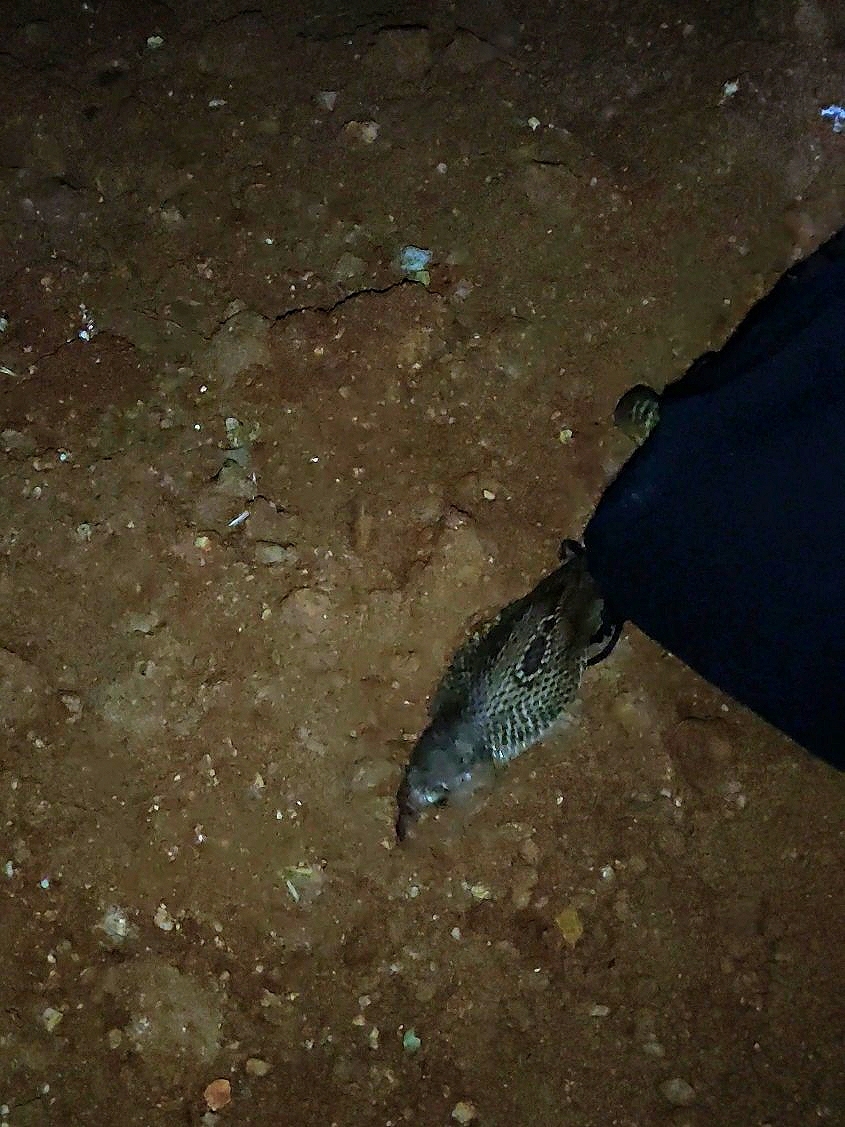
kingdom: Animalia
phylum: Chordata
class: Squamata
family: Elapidae
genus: Naja
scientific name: Naja naja
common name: Indian cobra
